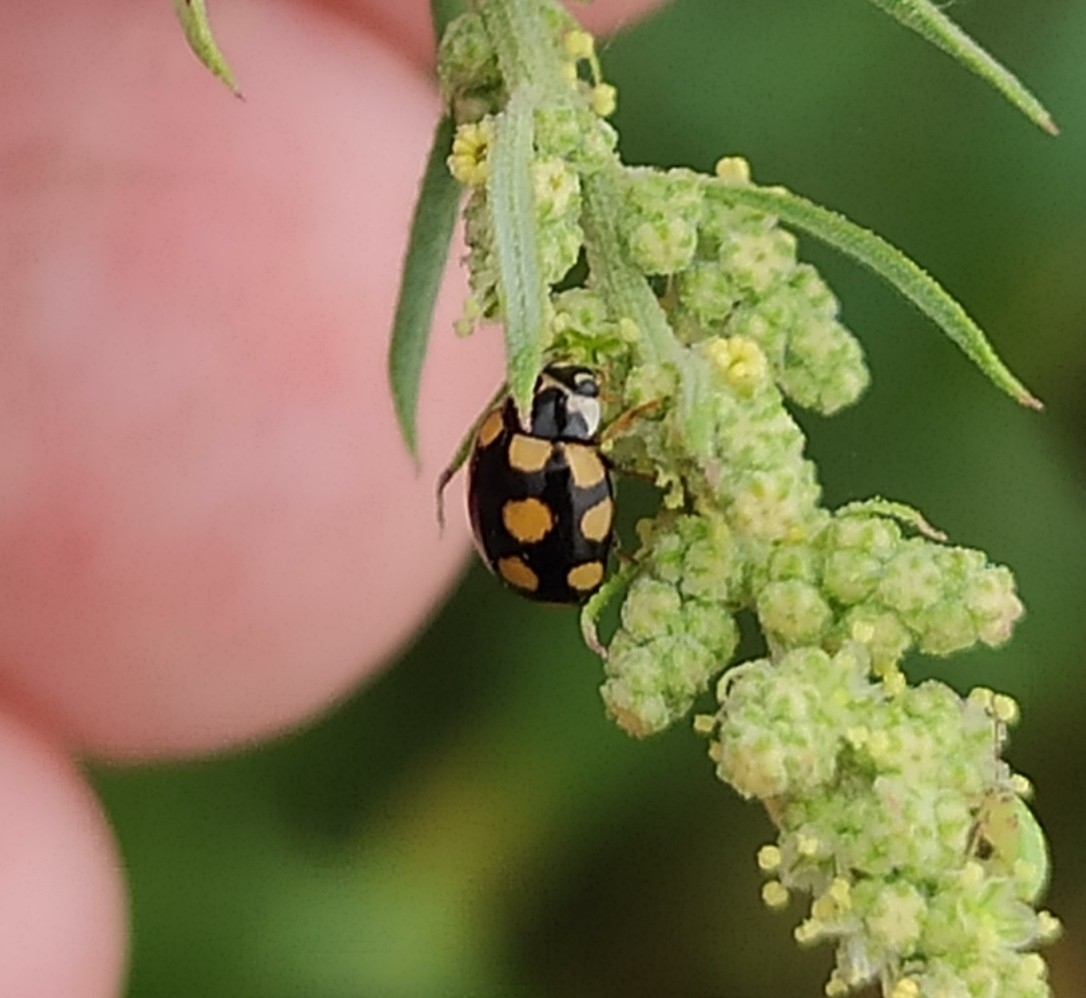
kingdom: Animalia
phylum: Arthropoda
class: Insecta
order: Coleoptera
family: Coccinellidae
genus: Coccinula
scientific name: Coccinula quatuordecimpustulata
